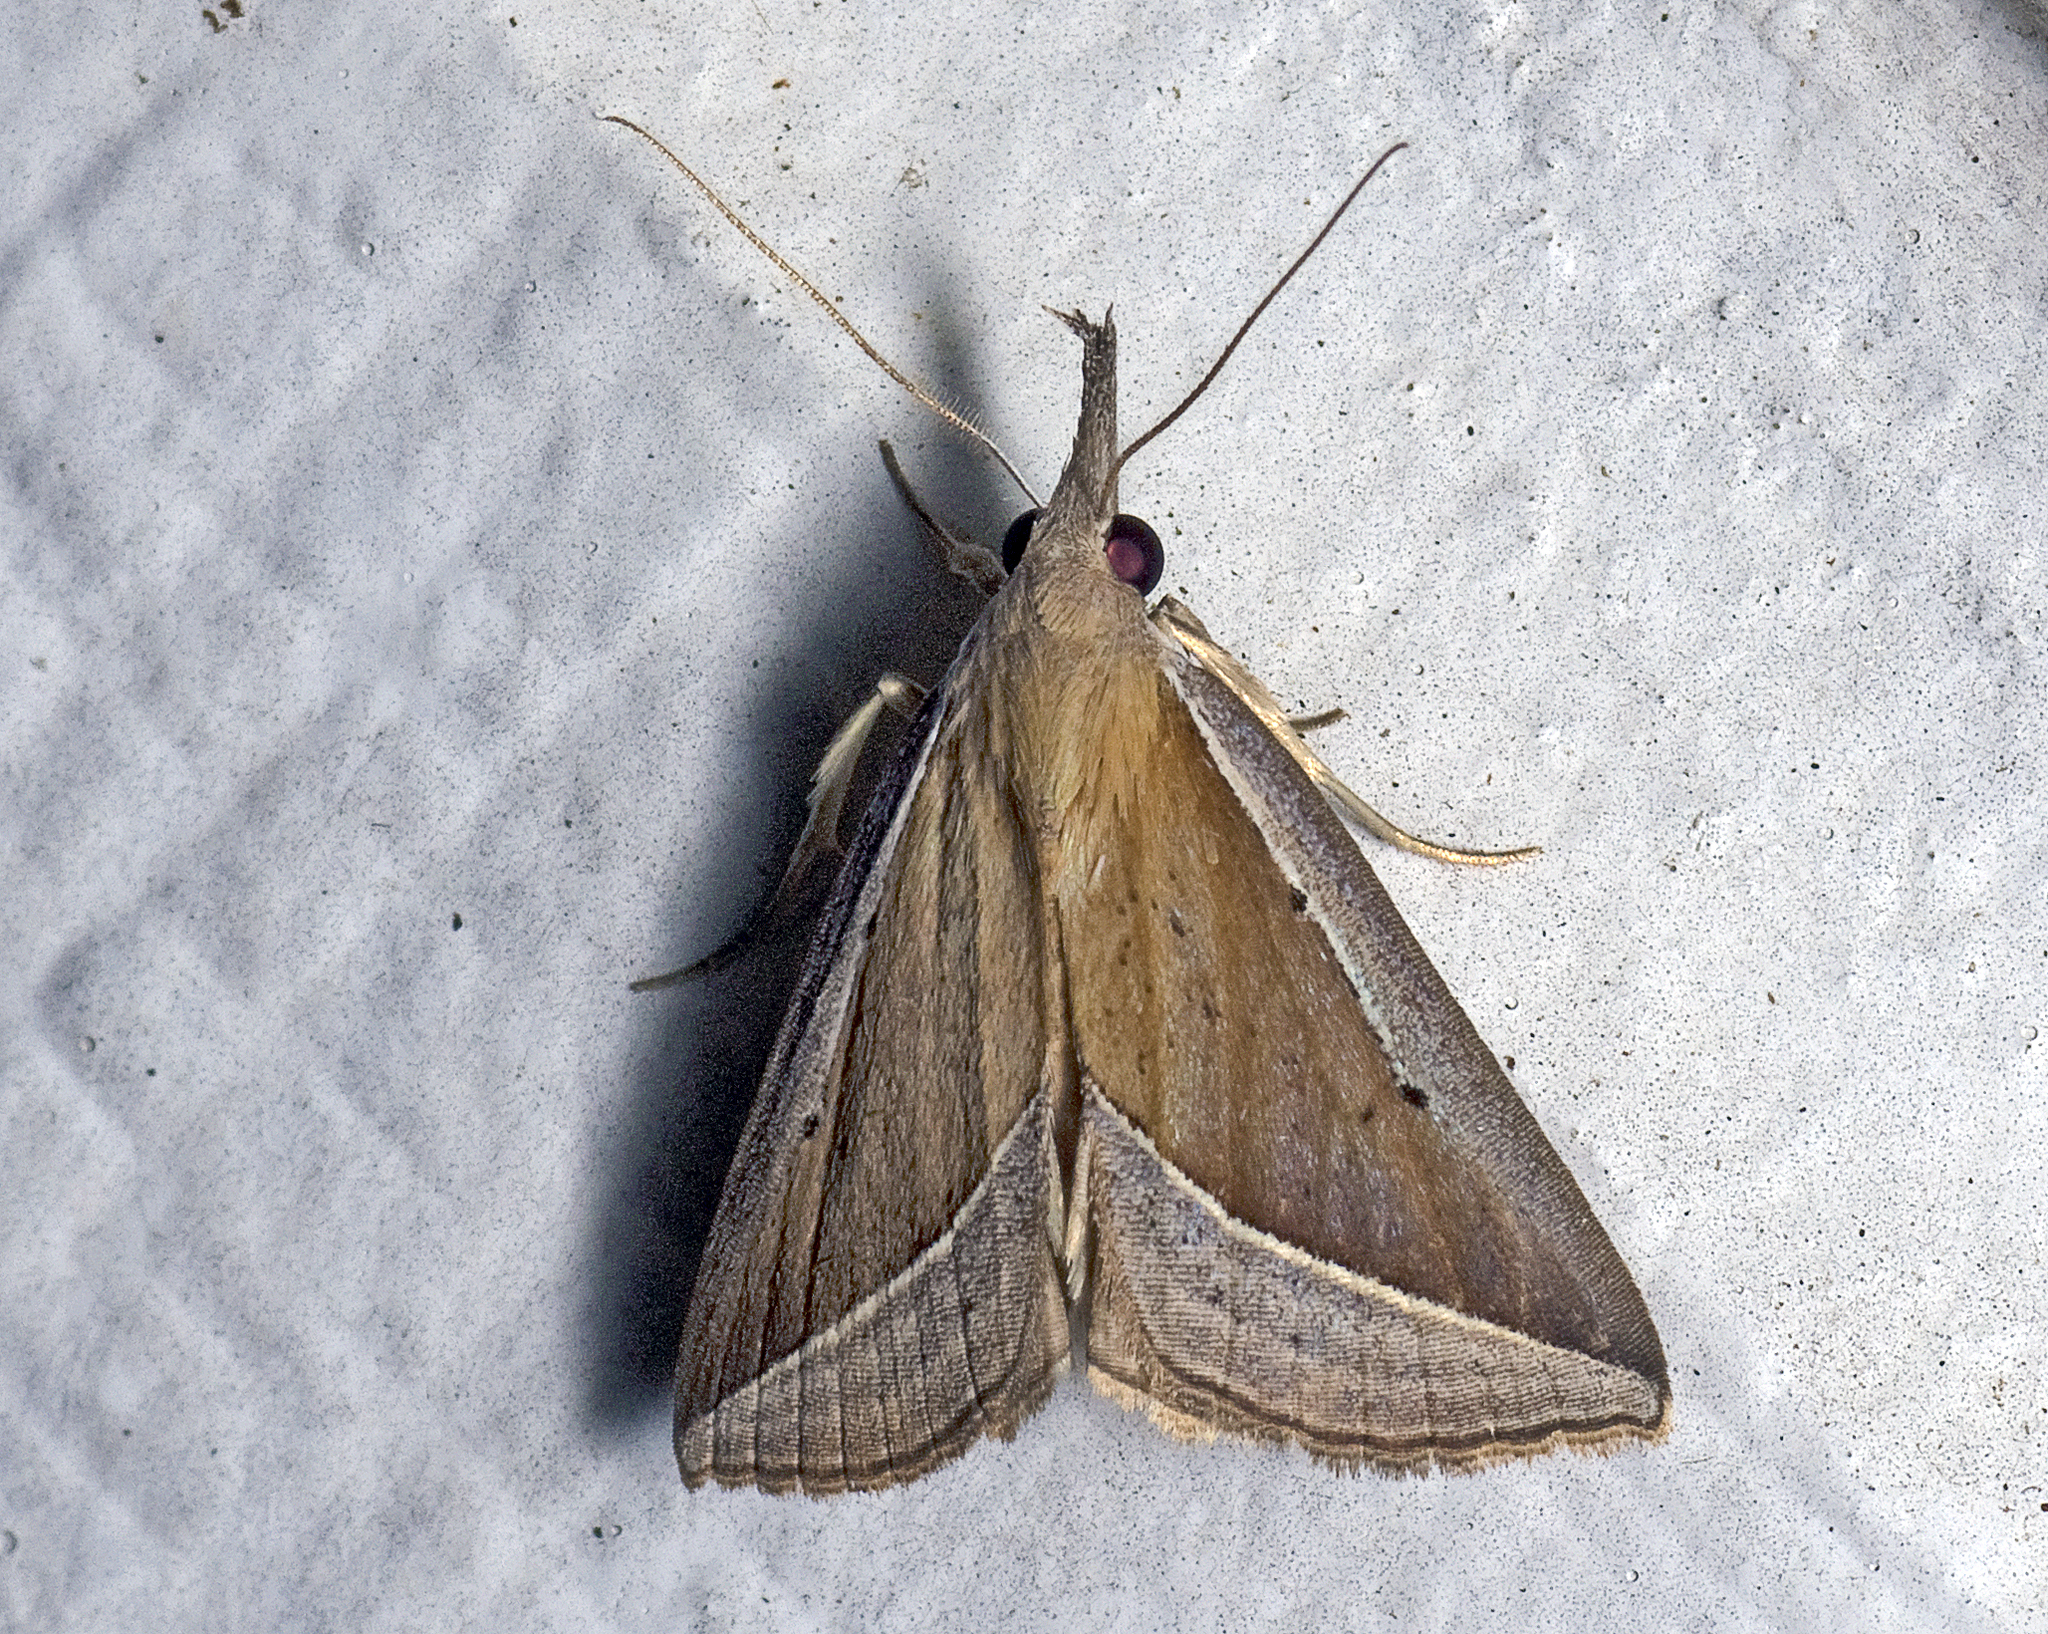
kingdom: Animalia
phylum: Arthropoda
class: Insecta
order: Lepidoptera
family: Erebidae
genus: Hypena
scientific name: Hypena conscitalis
